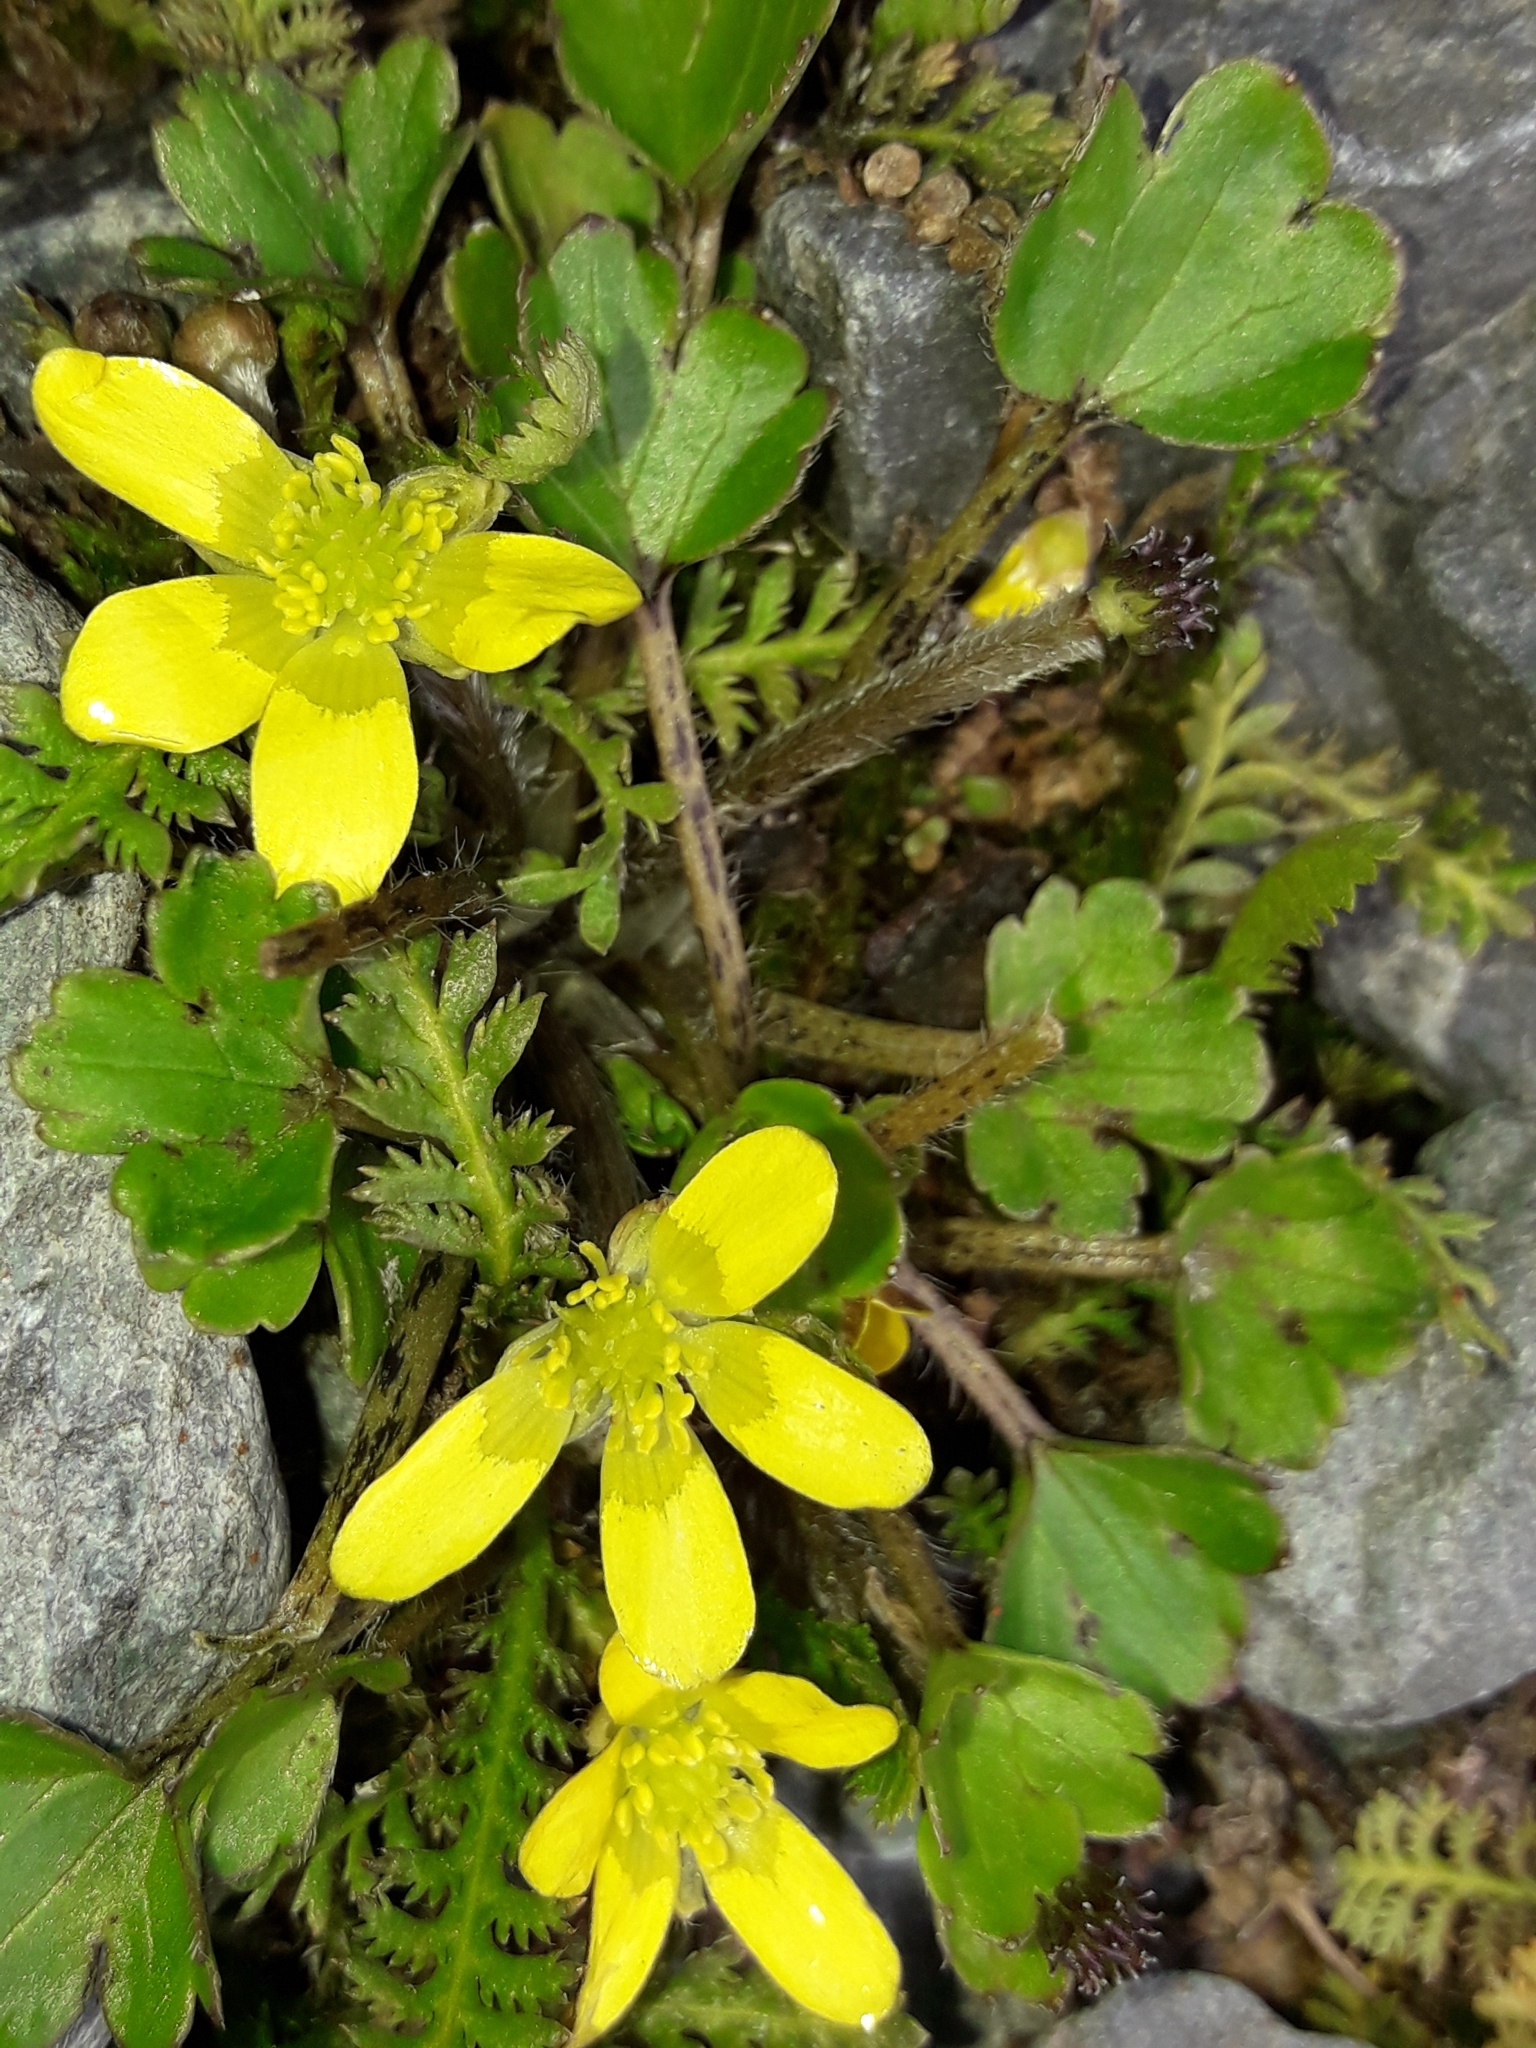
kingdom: Plantae
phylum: Tracheophyta
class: Magnoliopsida
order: Ranunculales
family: Ranunculaceae
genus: Ranunculus
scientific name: Ranunculus foliosus
